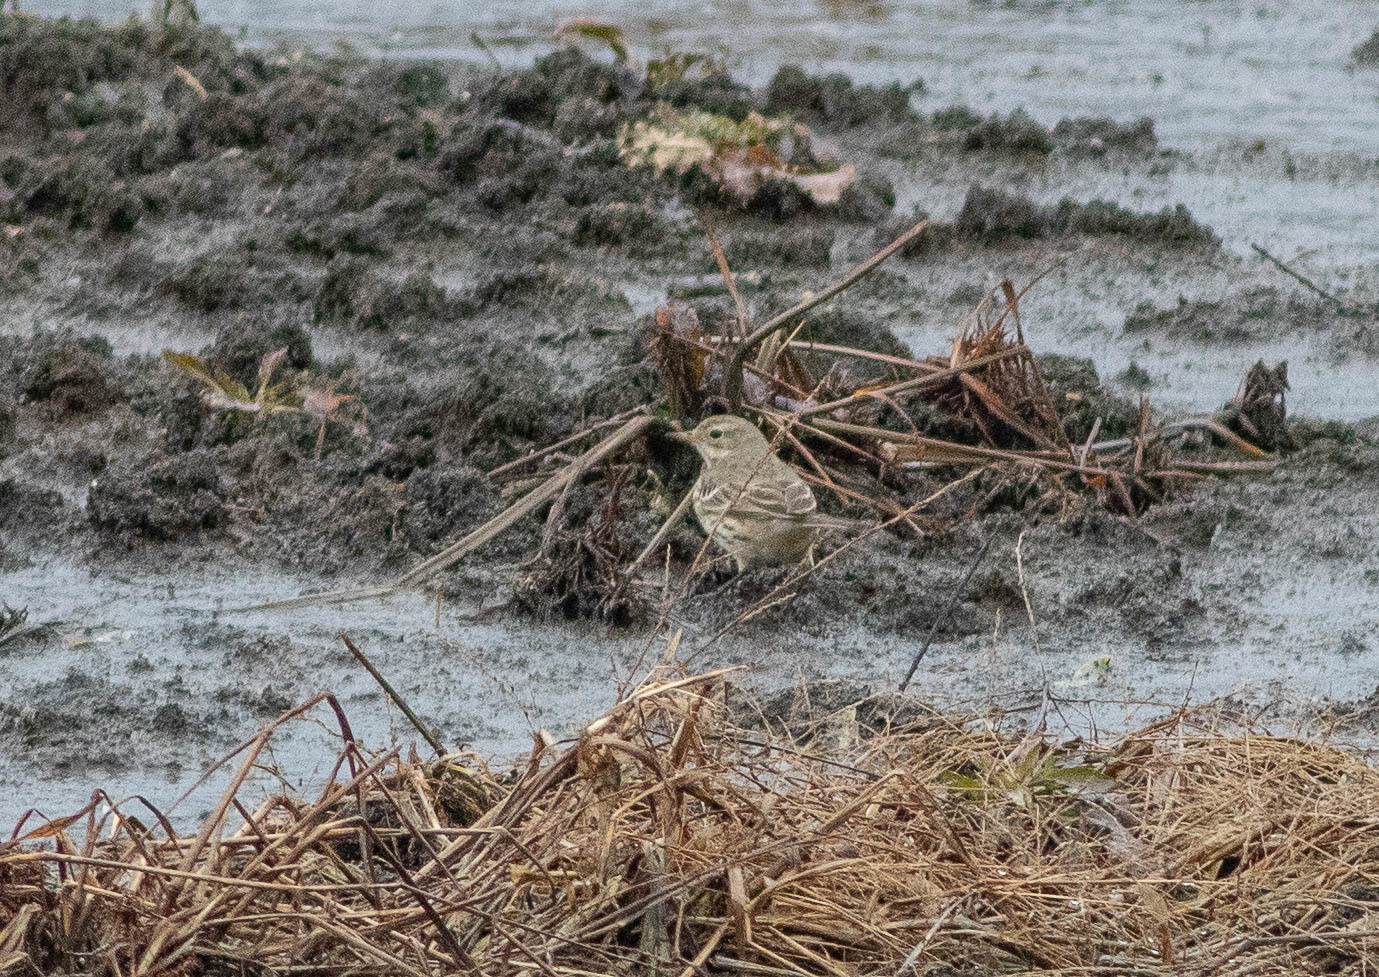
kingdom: Animalia
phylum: Chordata
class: Aves
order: Passeriformes
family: Motacillidae
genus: Anthus
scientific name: Anthus rubescens
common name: Buff-bellied pipit
